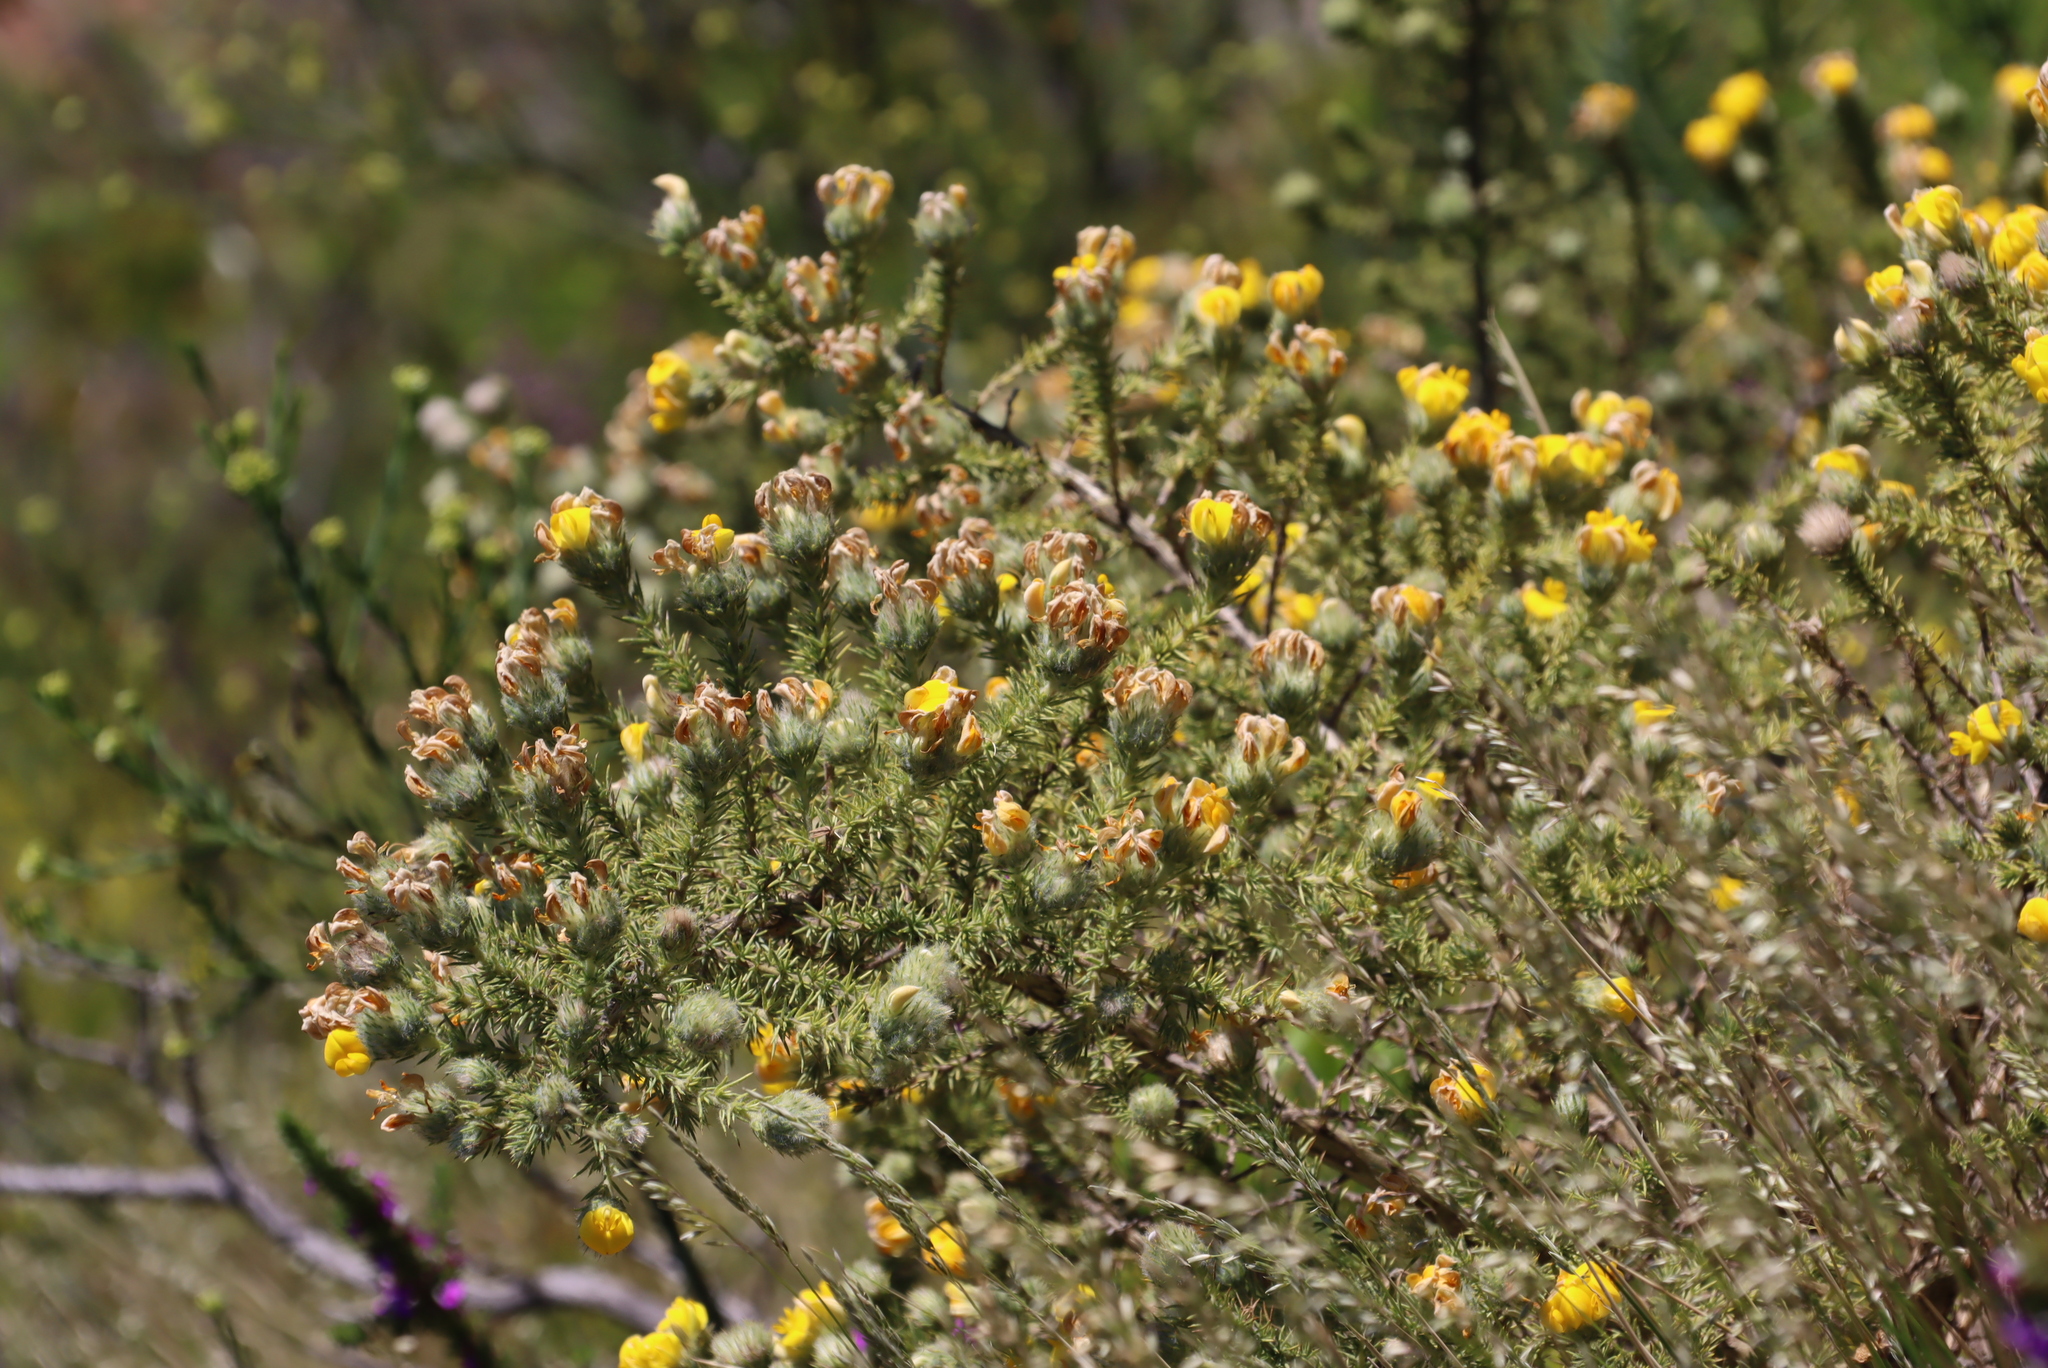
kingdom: Plantae
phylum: Tracheophyta
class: Magnoliopsida
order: Fabales
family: Fabaceae
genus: Aspalathus
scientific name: Aspalathus chenopoda
